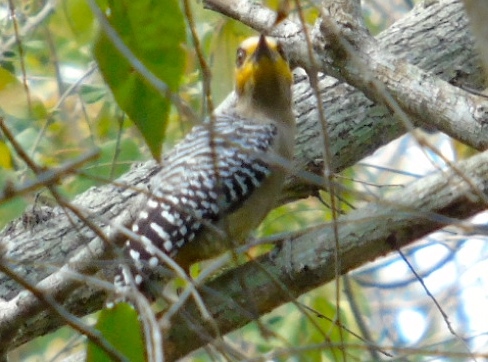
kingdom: Animalia
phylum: Chordata
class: Aves
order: Piciformes
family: Picidae
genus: Melanerpes
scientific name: Melanerpes chrysogenys
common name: Golden-cheeked woodpecker
